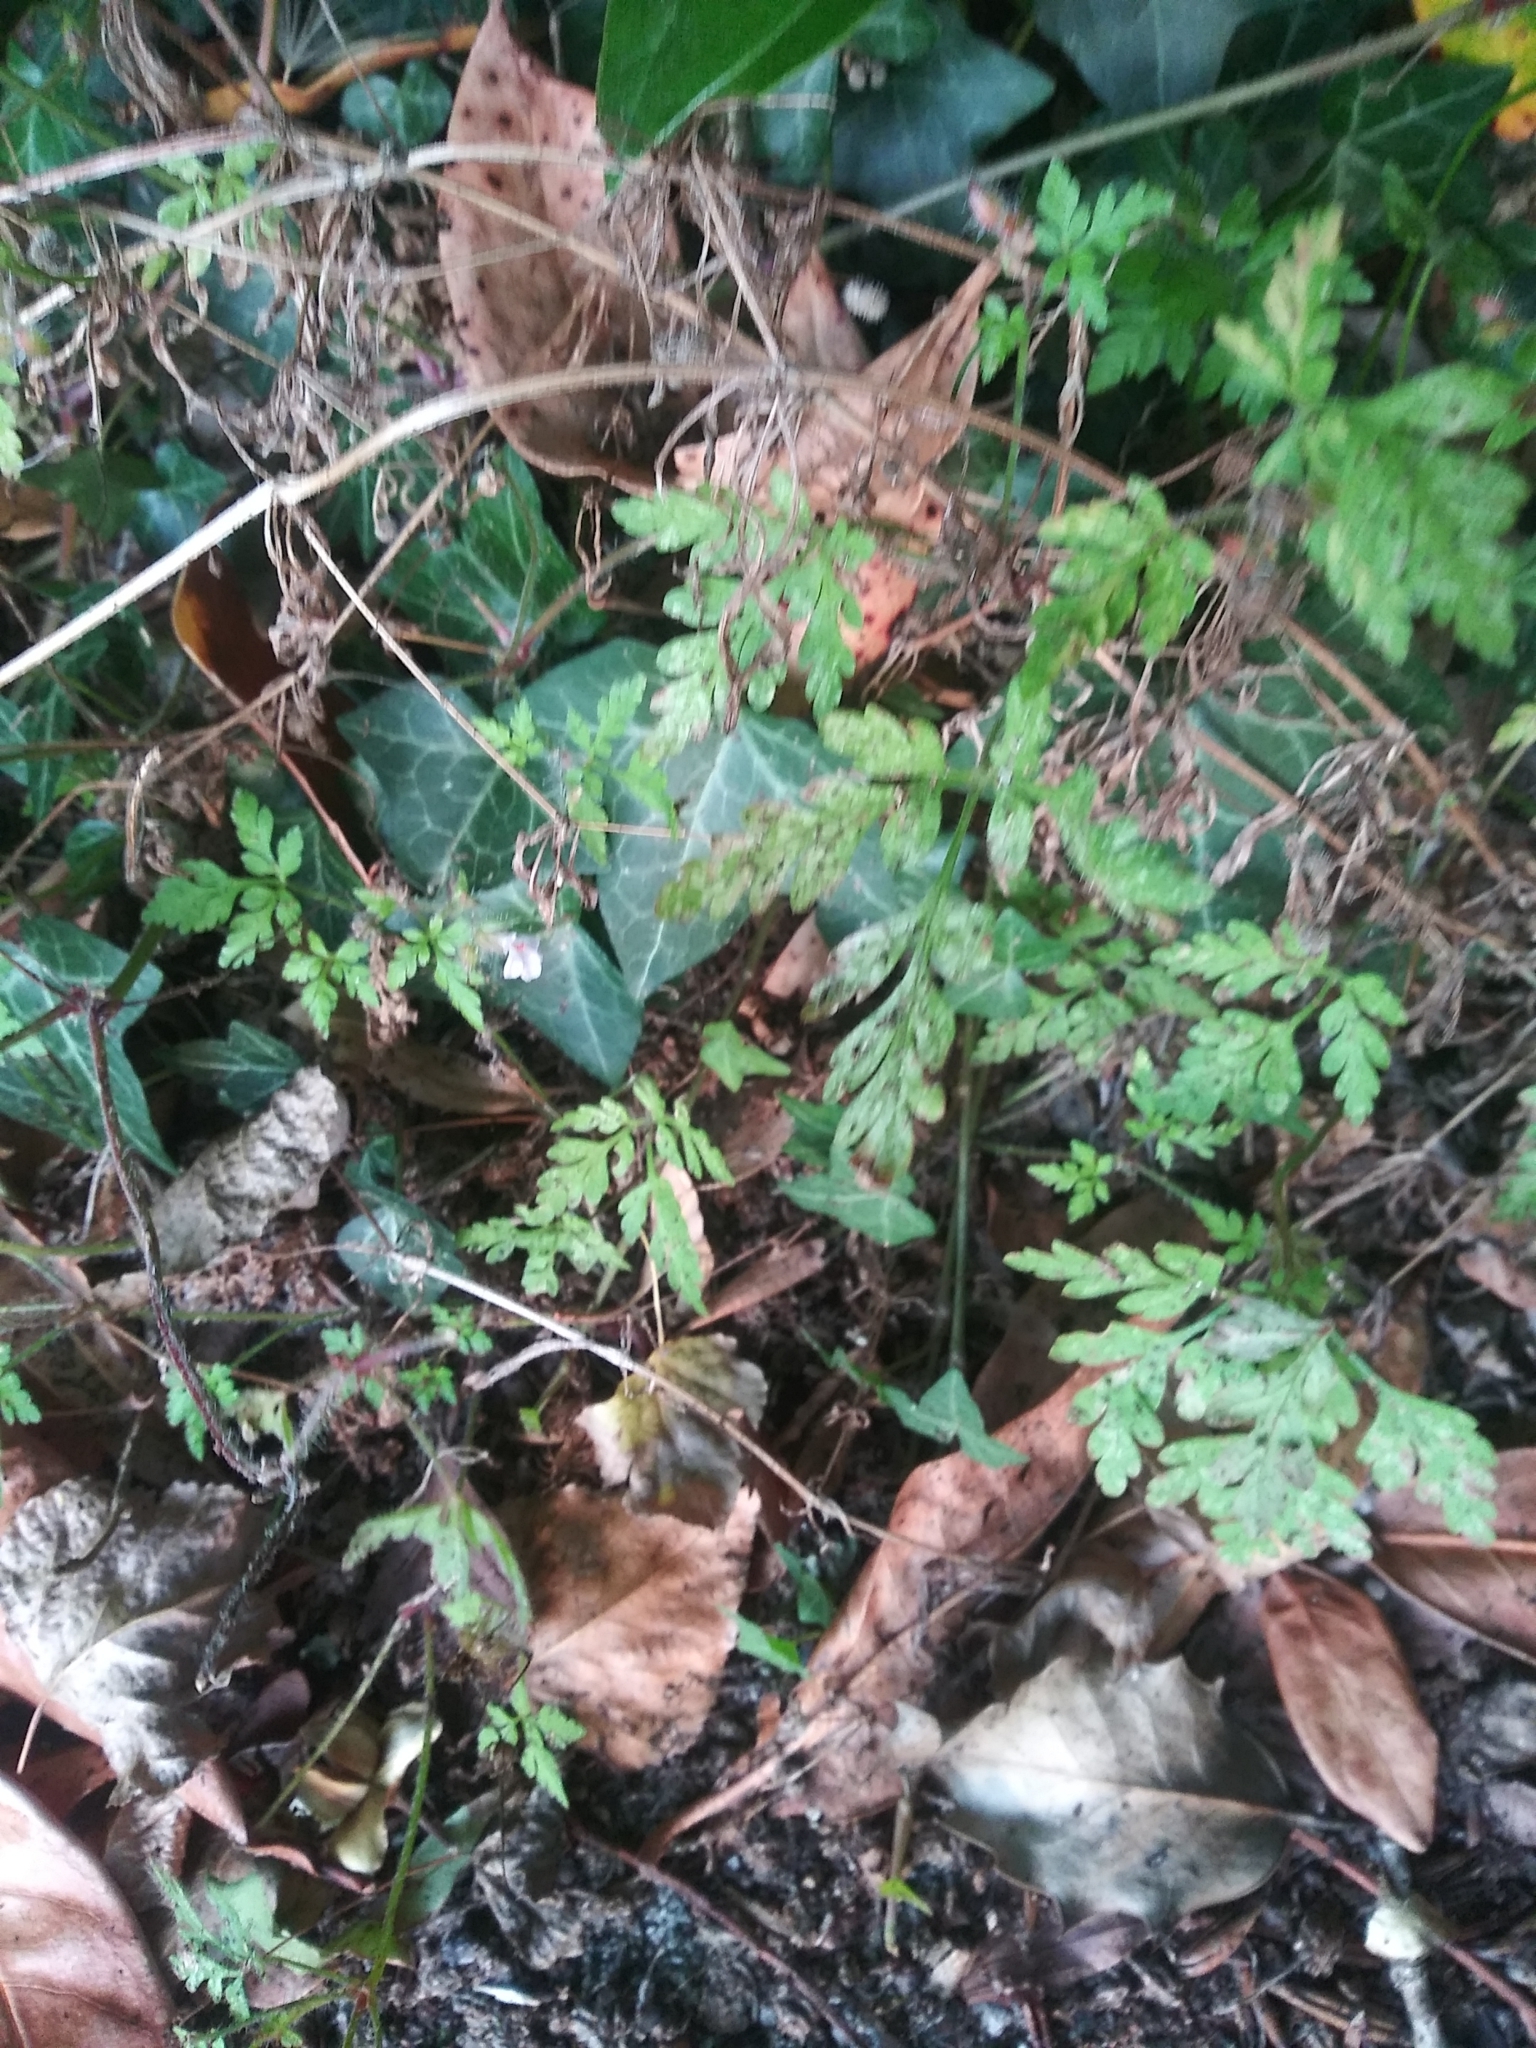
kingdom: Plantae
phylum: Tracheophyta
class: Magnoliopsida
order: Geraniales
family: Geraniaceae
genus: Geranium
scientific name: Geranium robertianum
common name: Herb-robert
